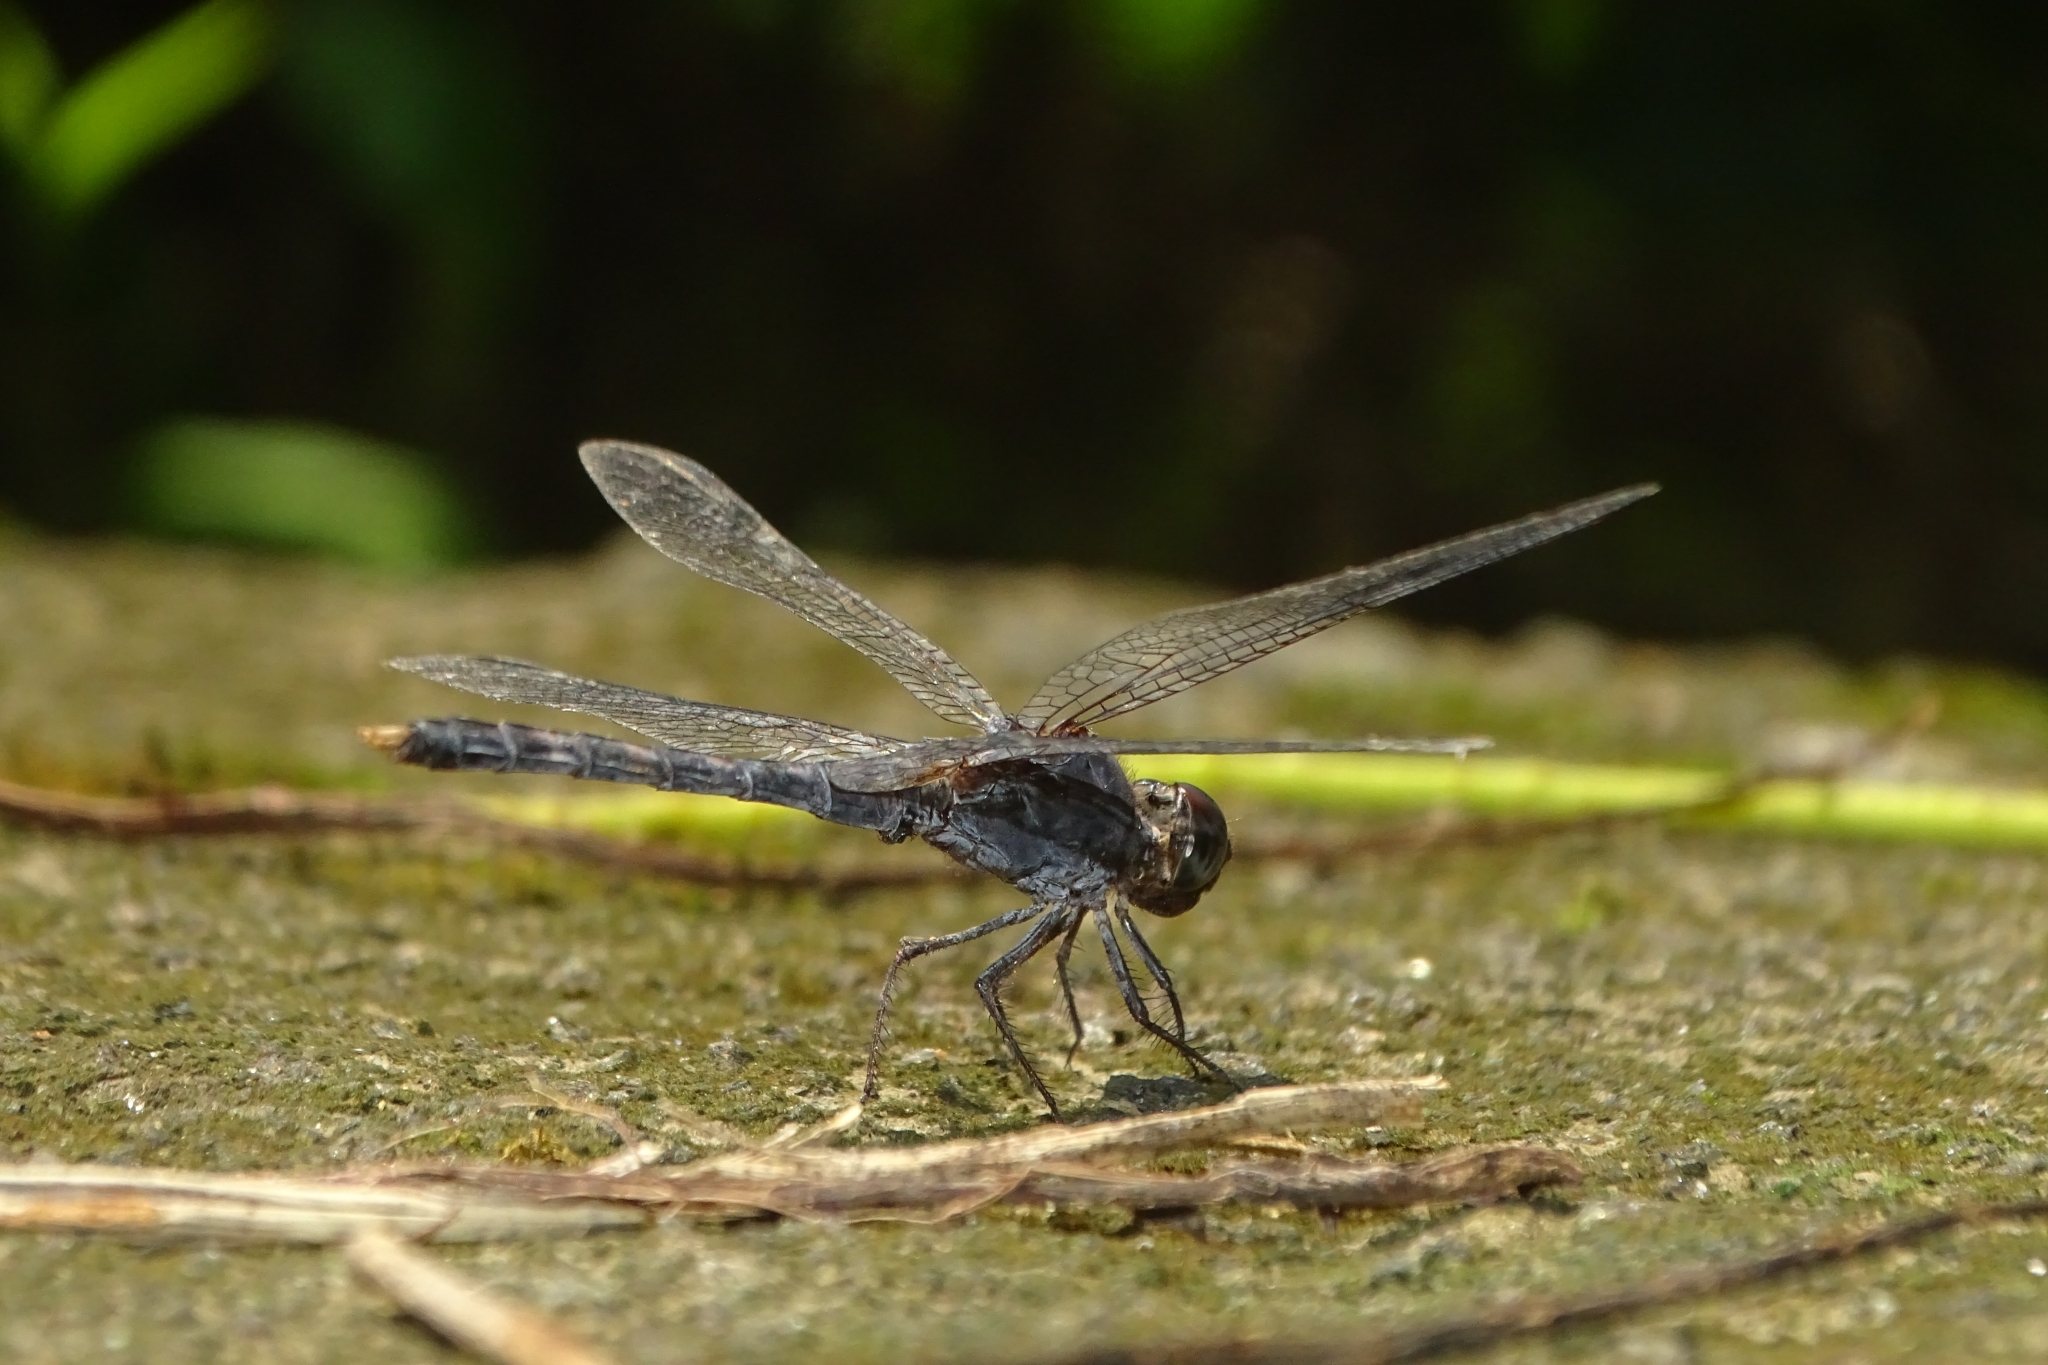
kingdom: Animalia
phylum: Arthropoda
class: Insecta
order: Odonata
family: Libellulidae
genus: Bradinopyga
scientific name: Bradinopyga geminata
